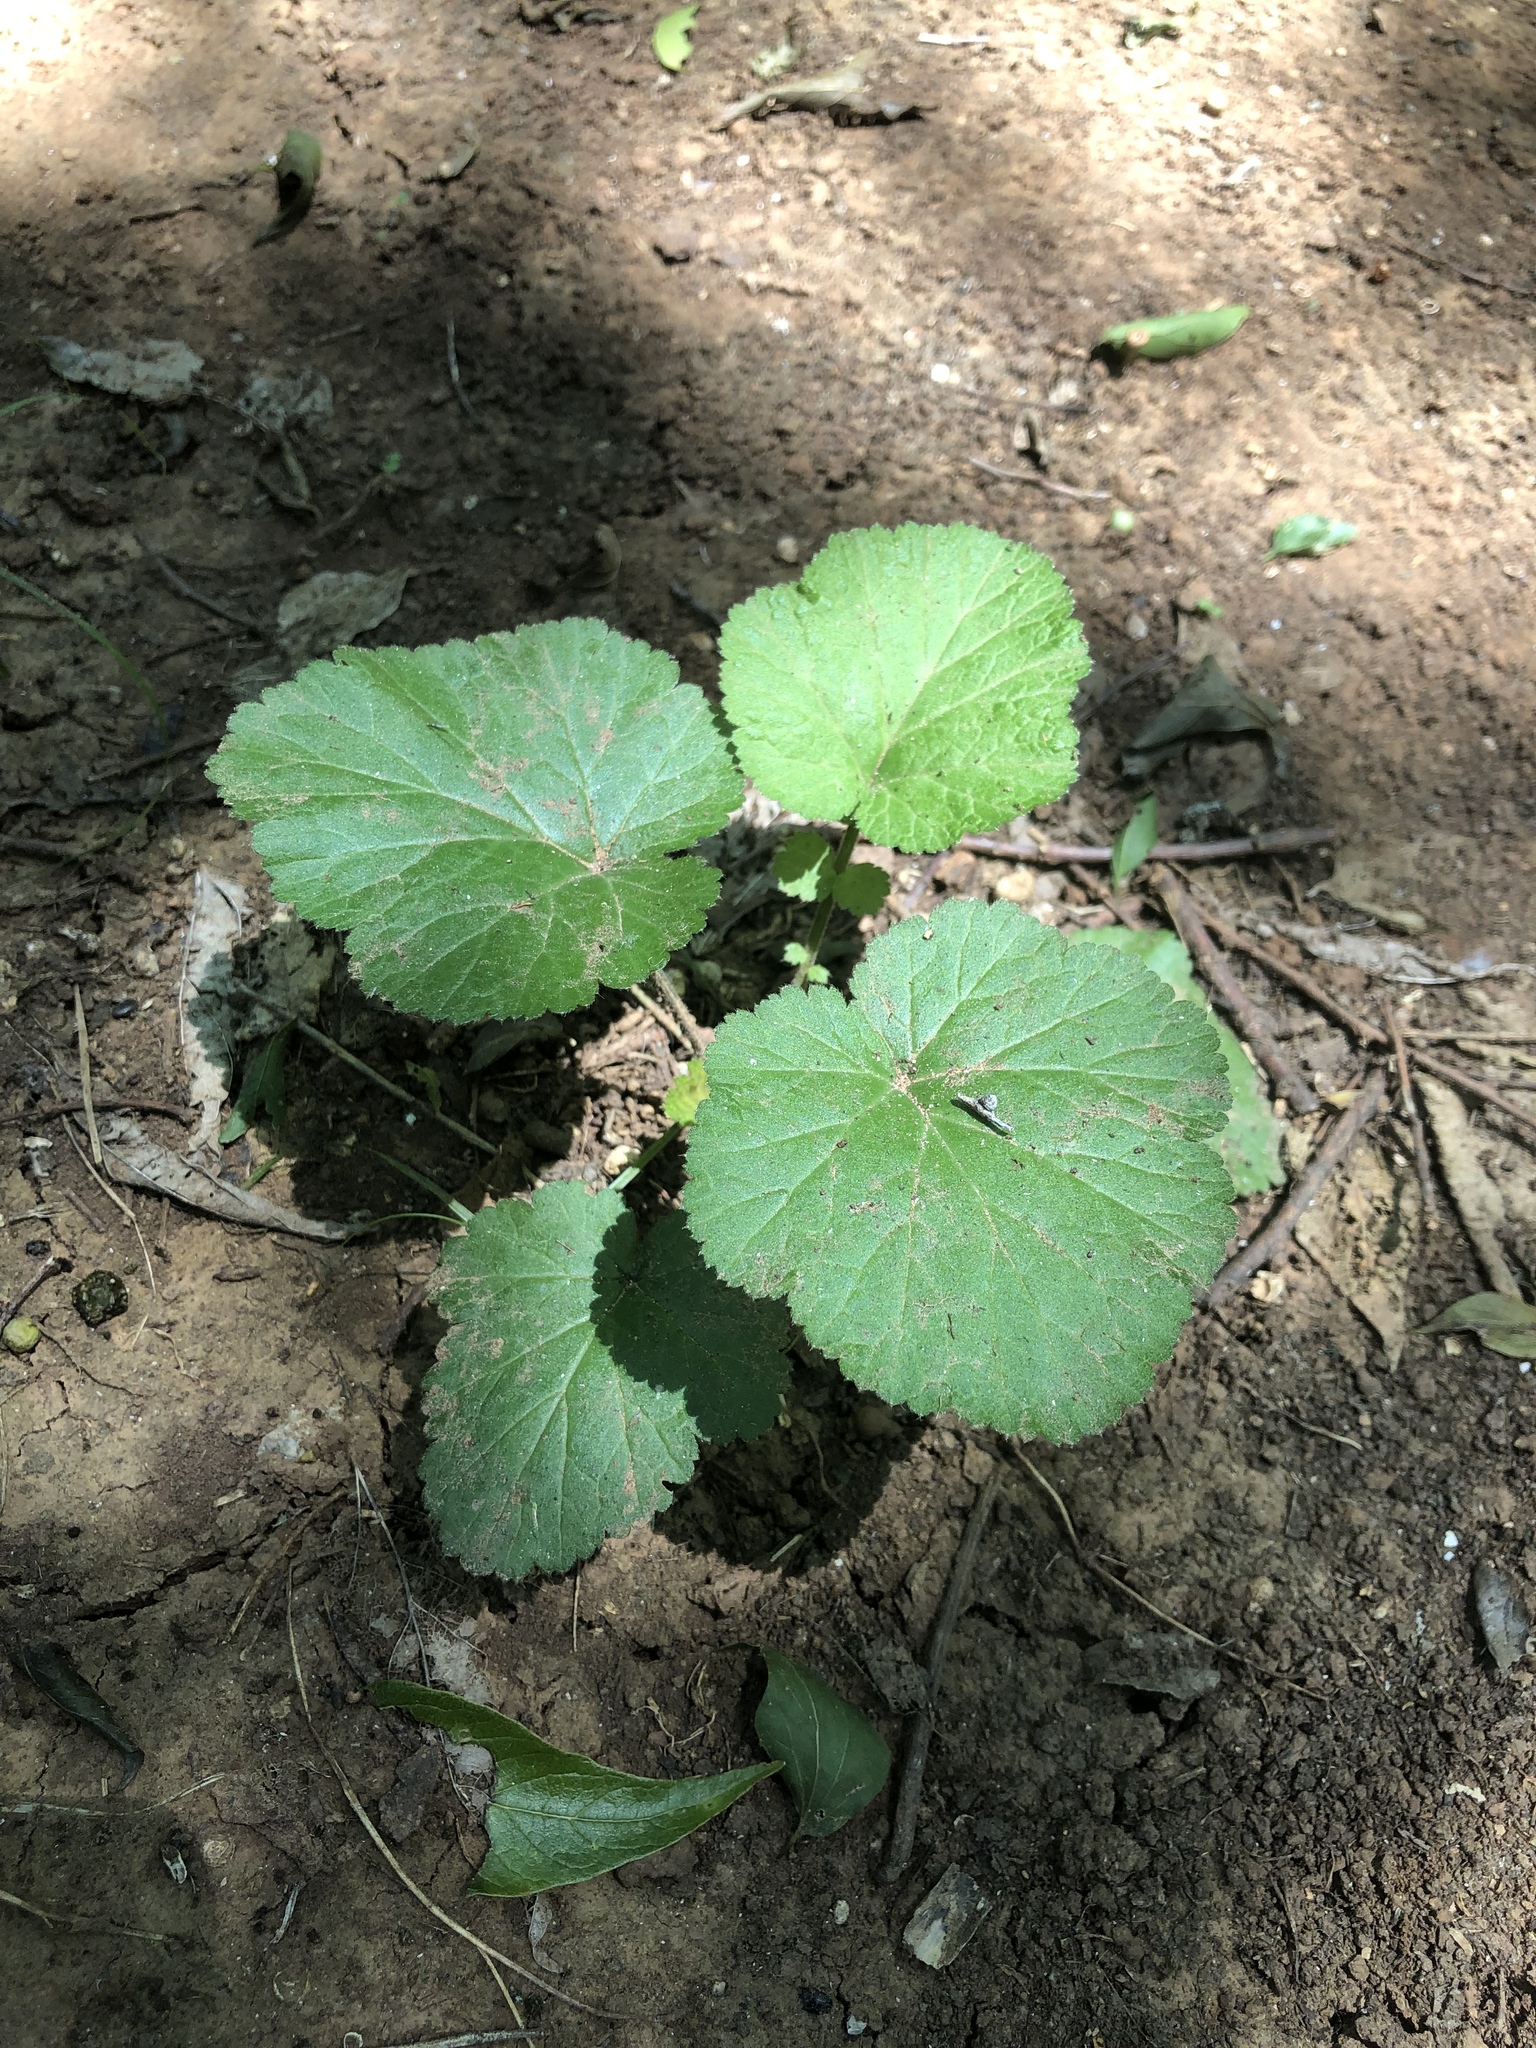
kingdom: Plantae
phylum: Tracheophyta
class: Magnoliopsida
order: Rosales
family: Rosaceae
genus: Geum
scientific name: Geum canadense
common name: White avens
